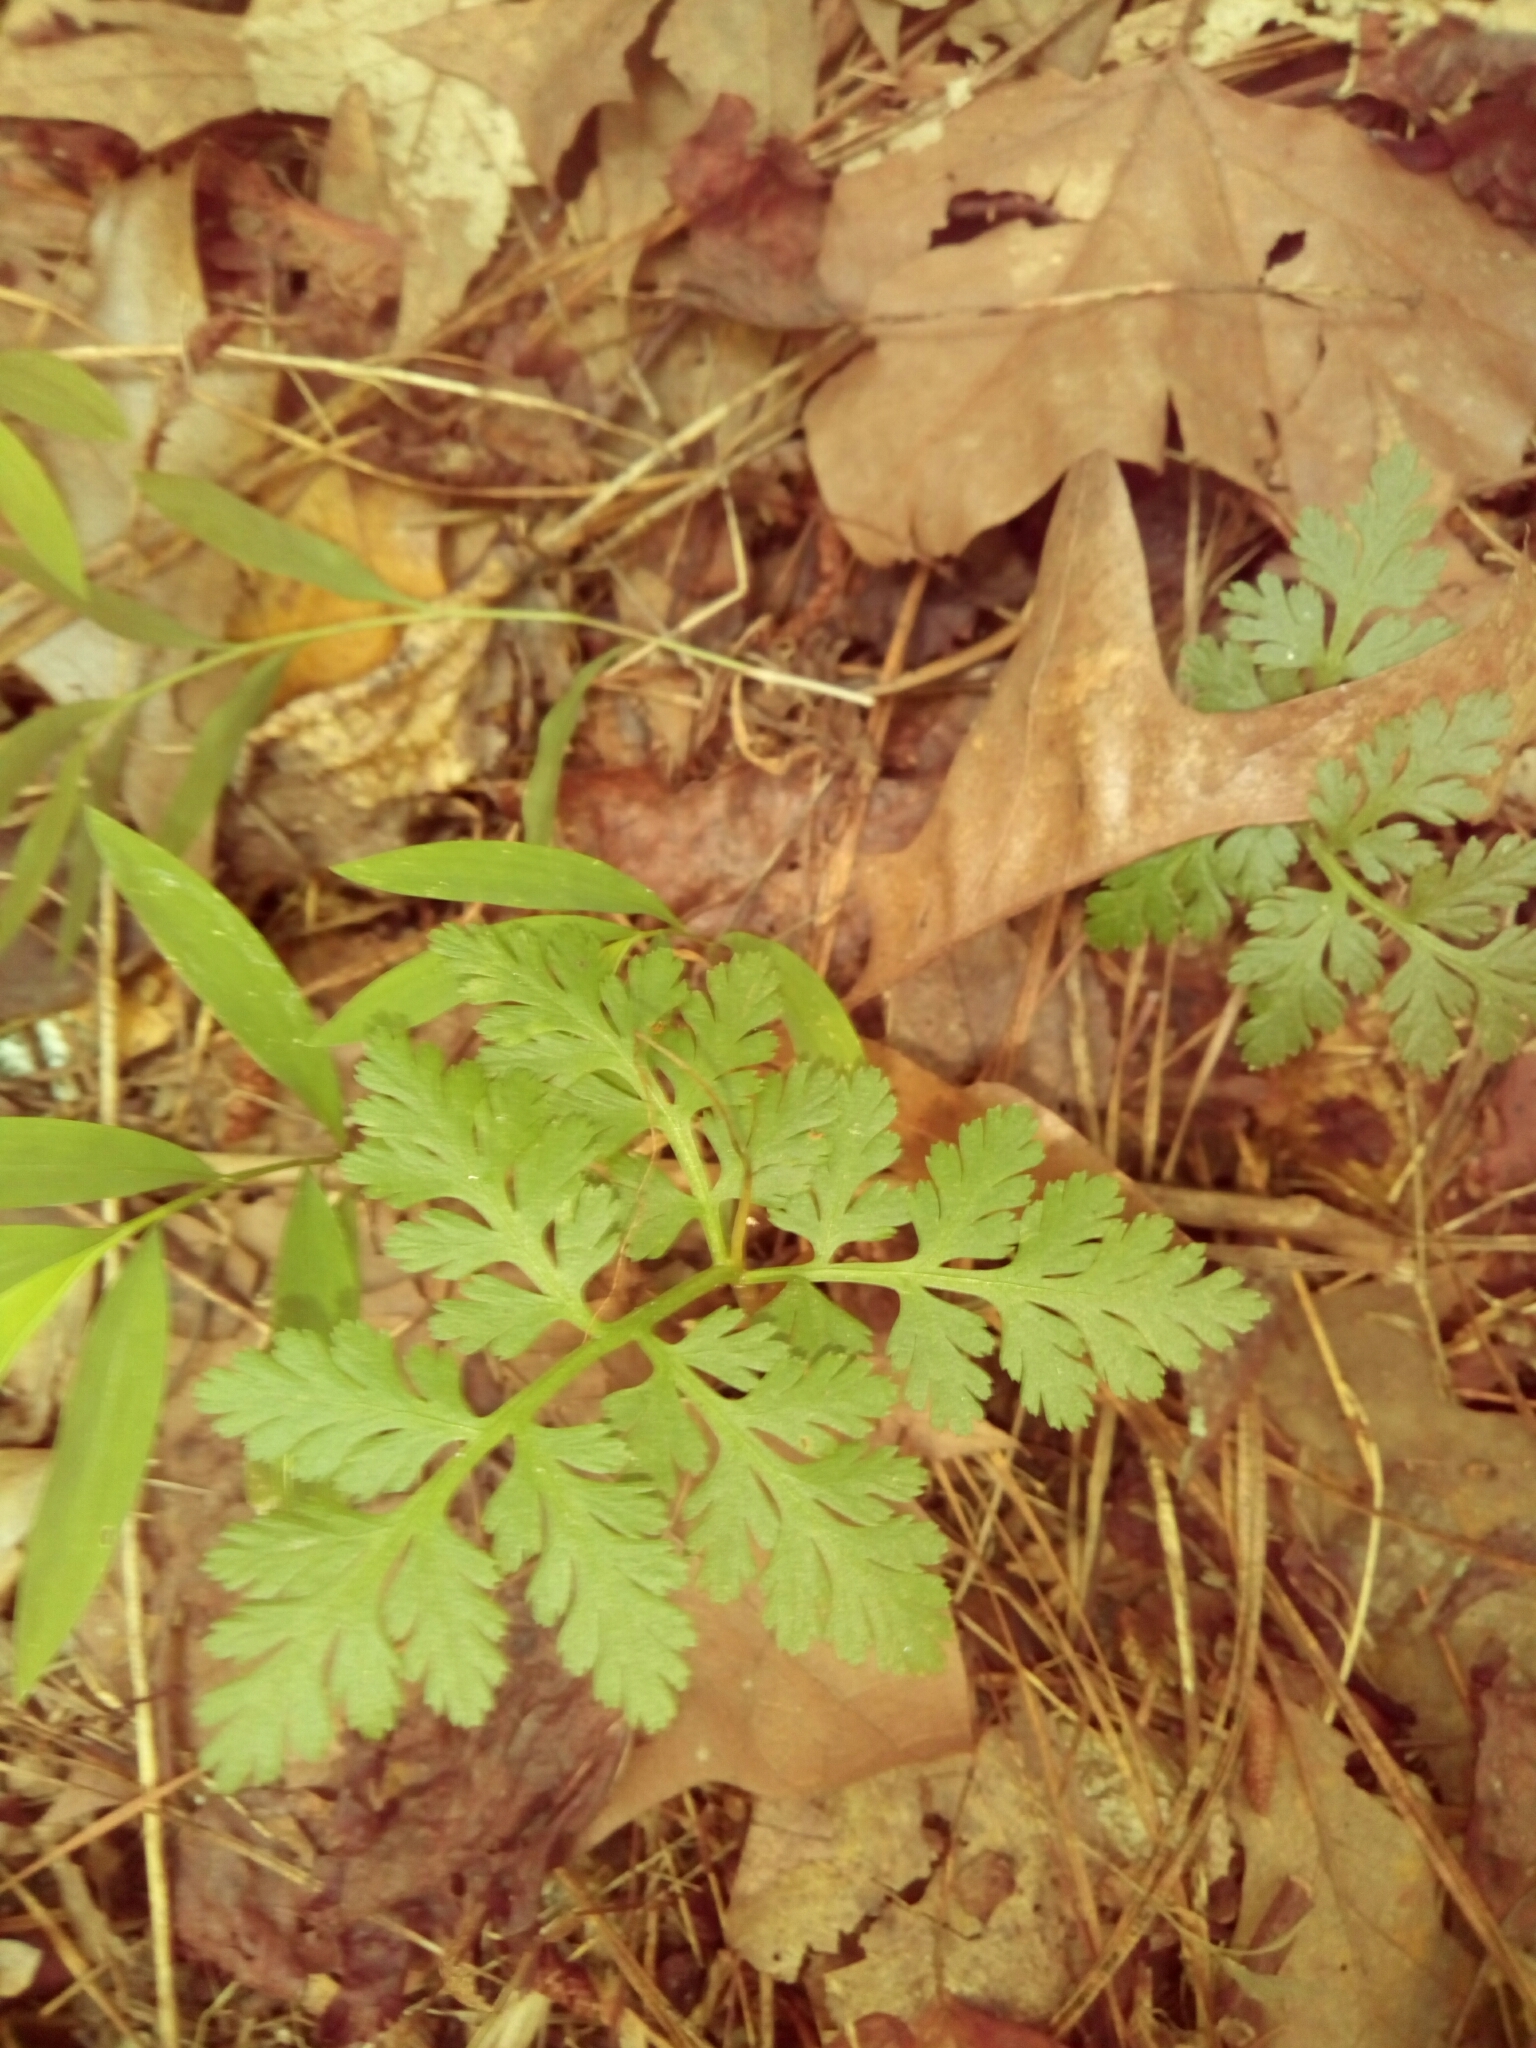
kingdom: Plantae
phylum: Tracheophyta
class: Polypodiopsida
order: Ophioglossales
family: Ophioglossaceae
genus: Botrypus
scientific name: Botrypus virginianus
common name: Common grapefern
